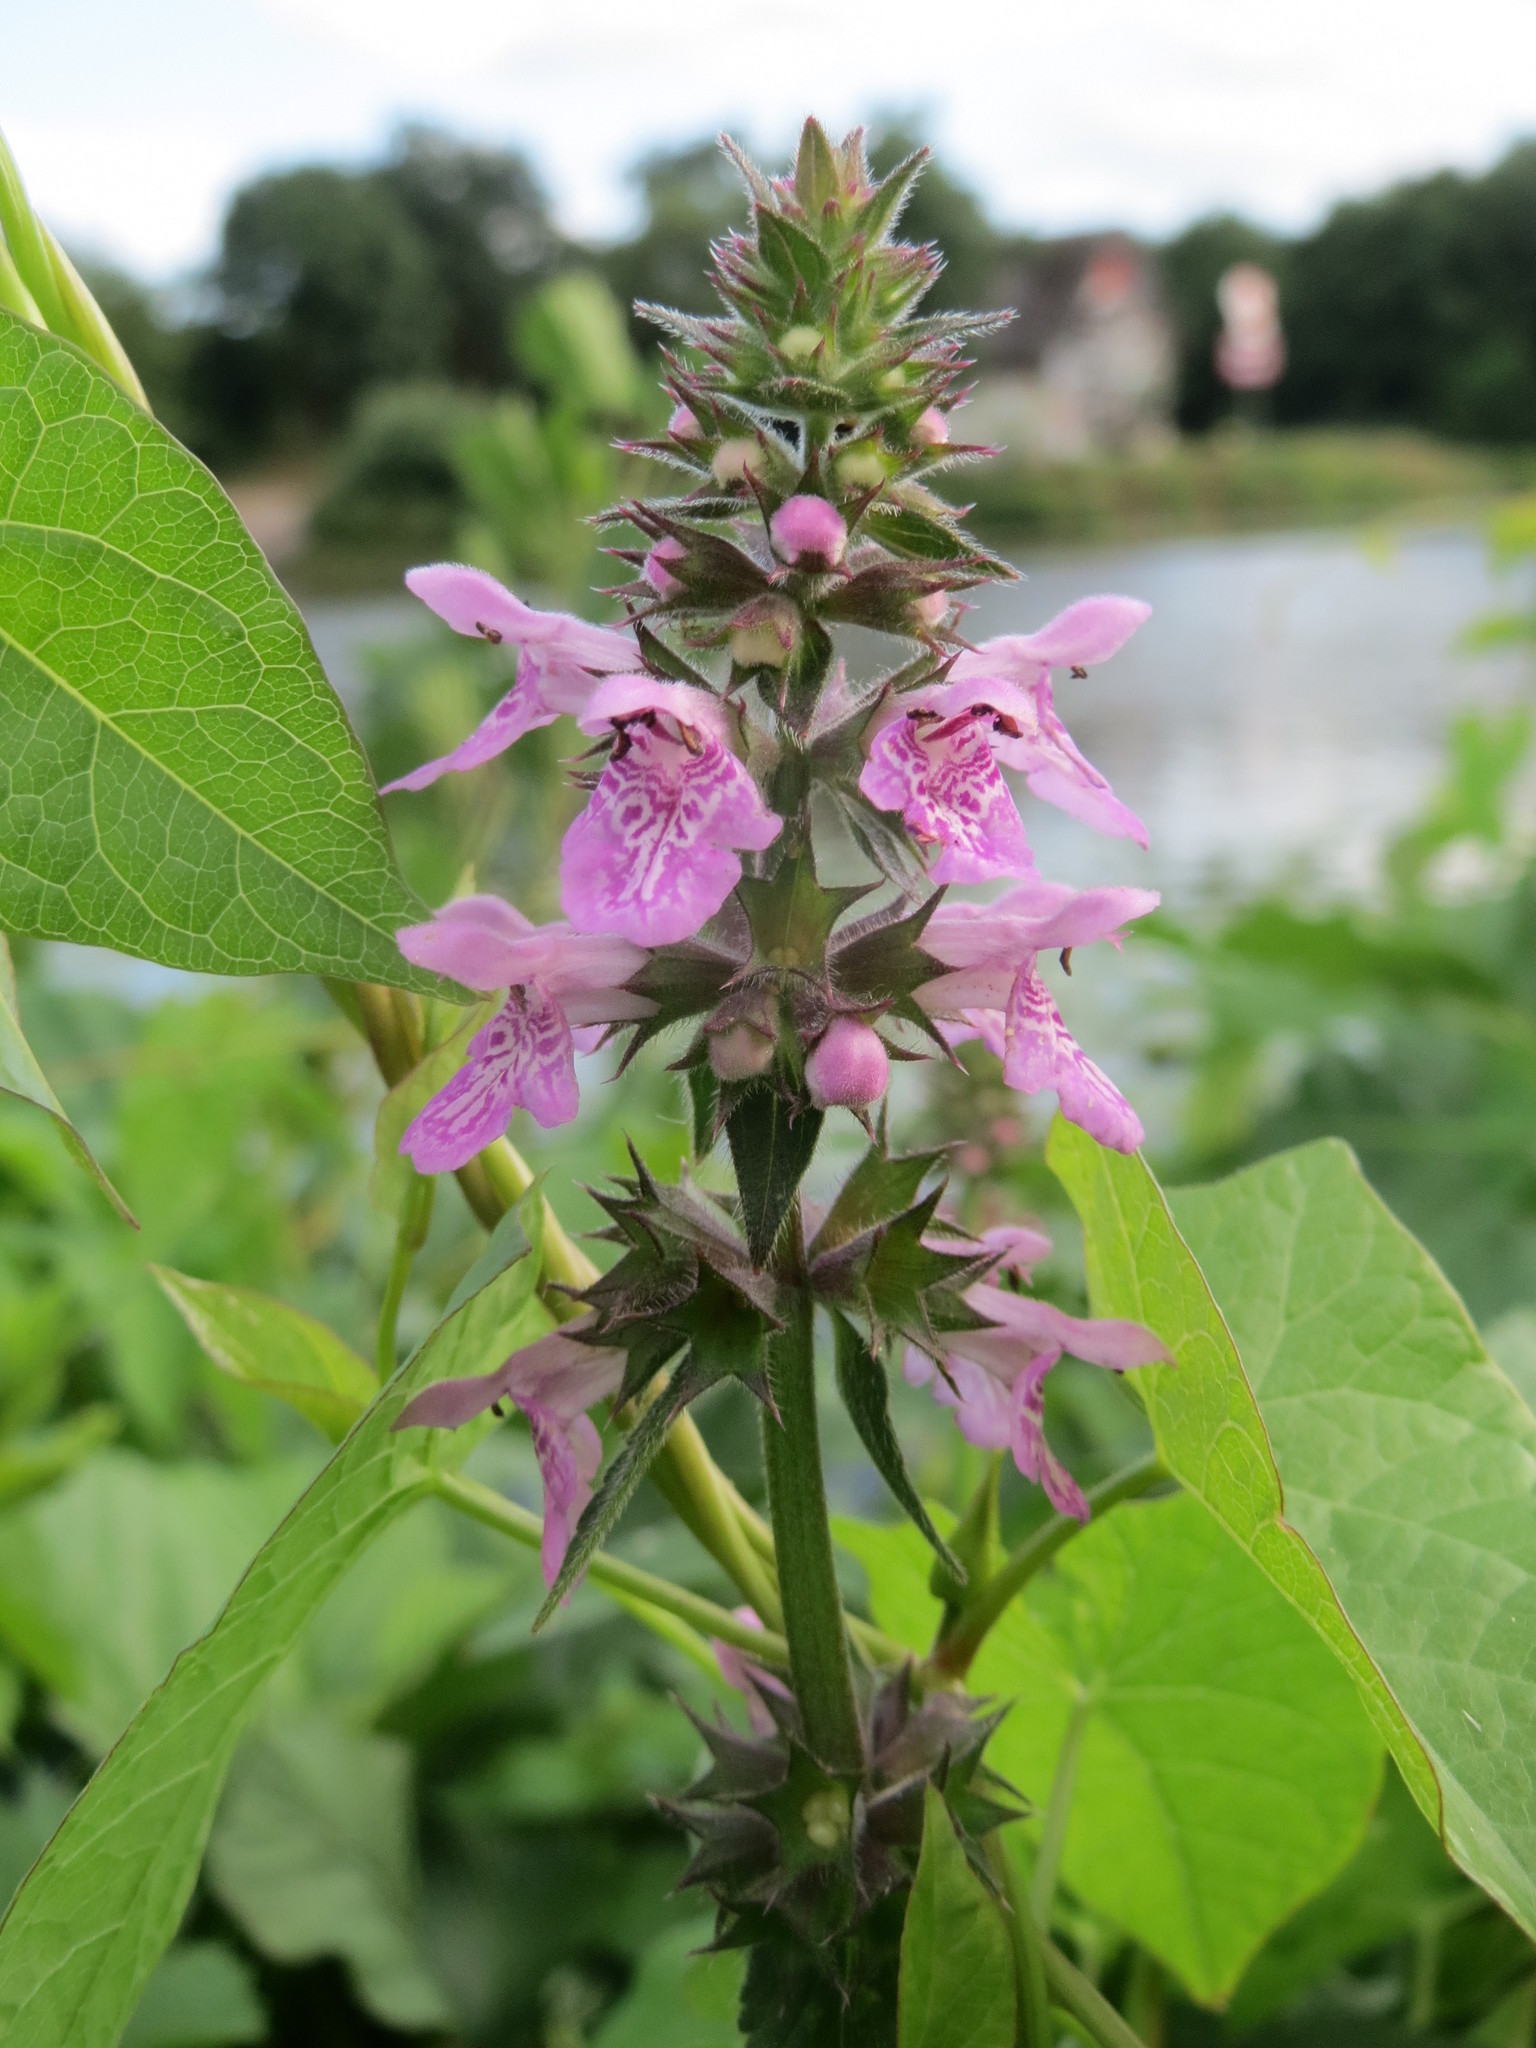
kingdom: Plantae
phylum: Tracheophyta
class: Magnoliopsida
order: Lamiales
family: Lamiaceae
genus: Stachys
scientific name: Stachys palustris
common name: Marsh woundwort
